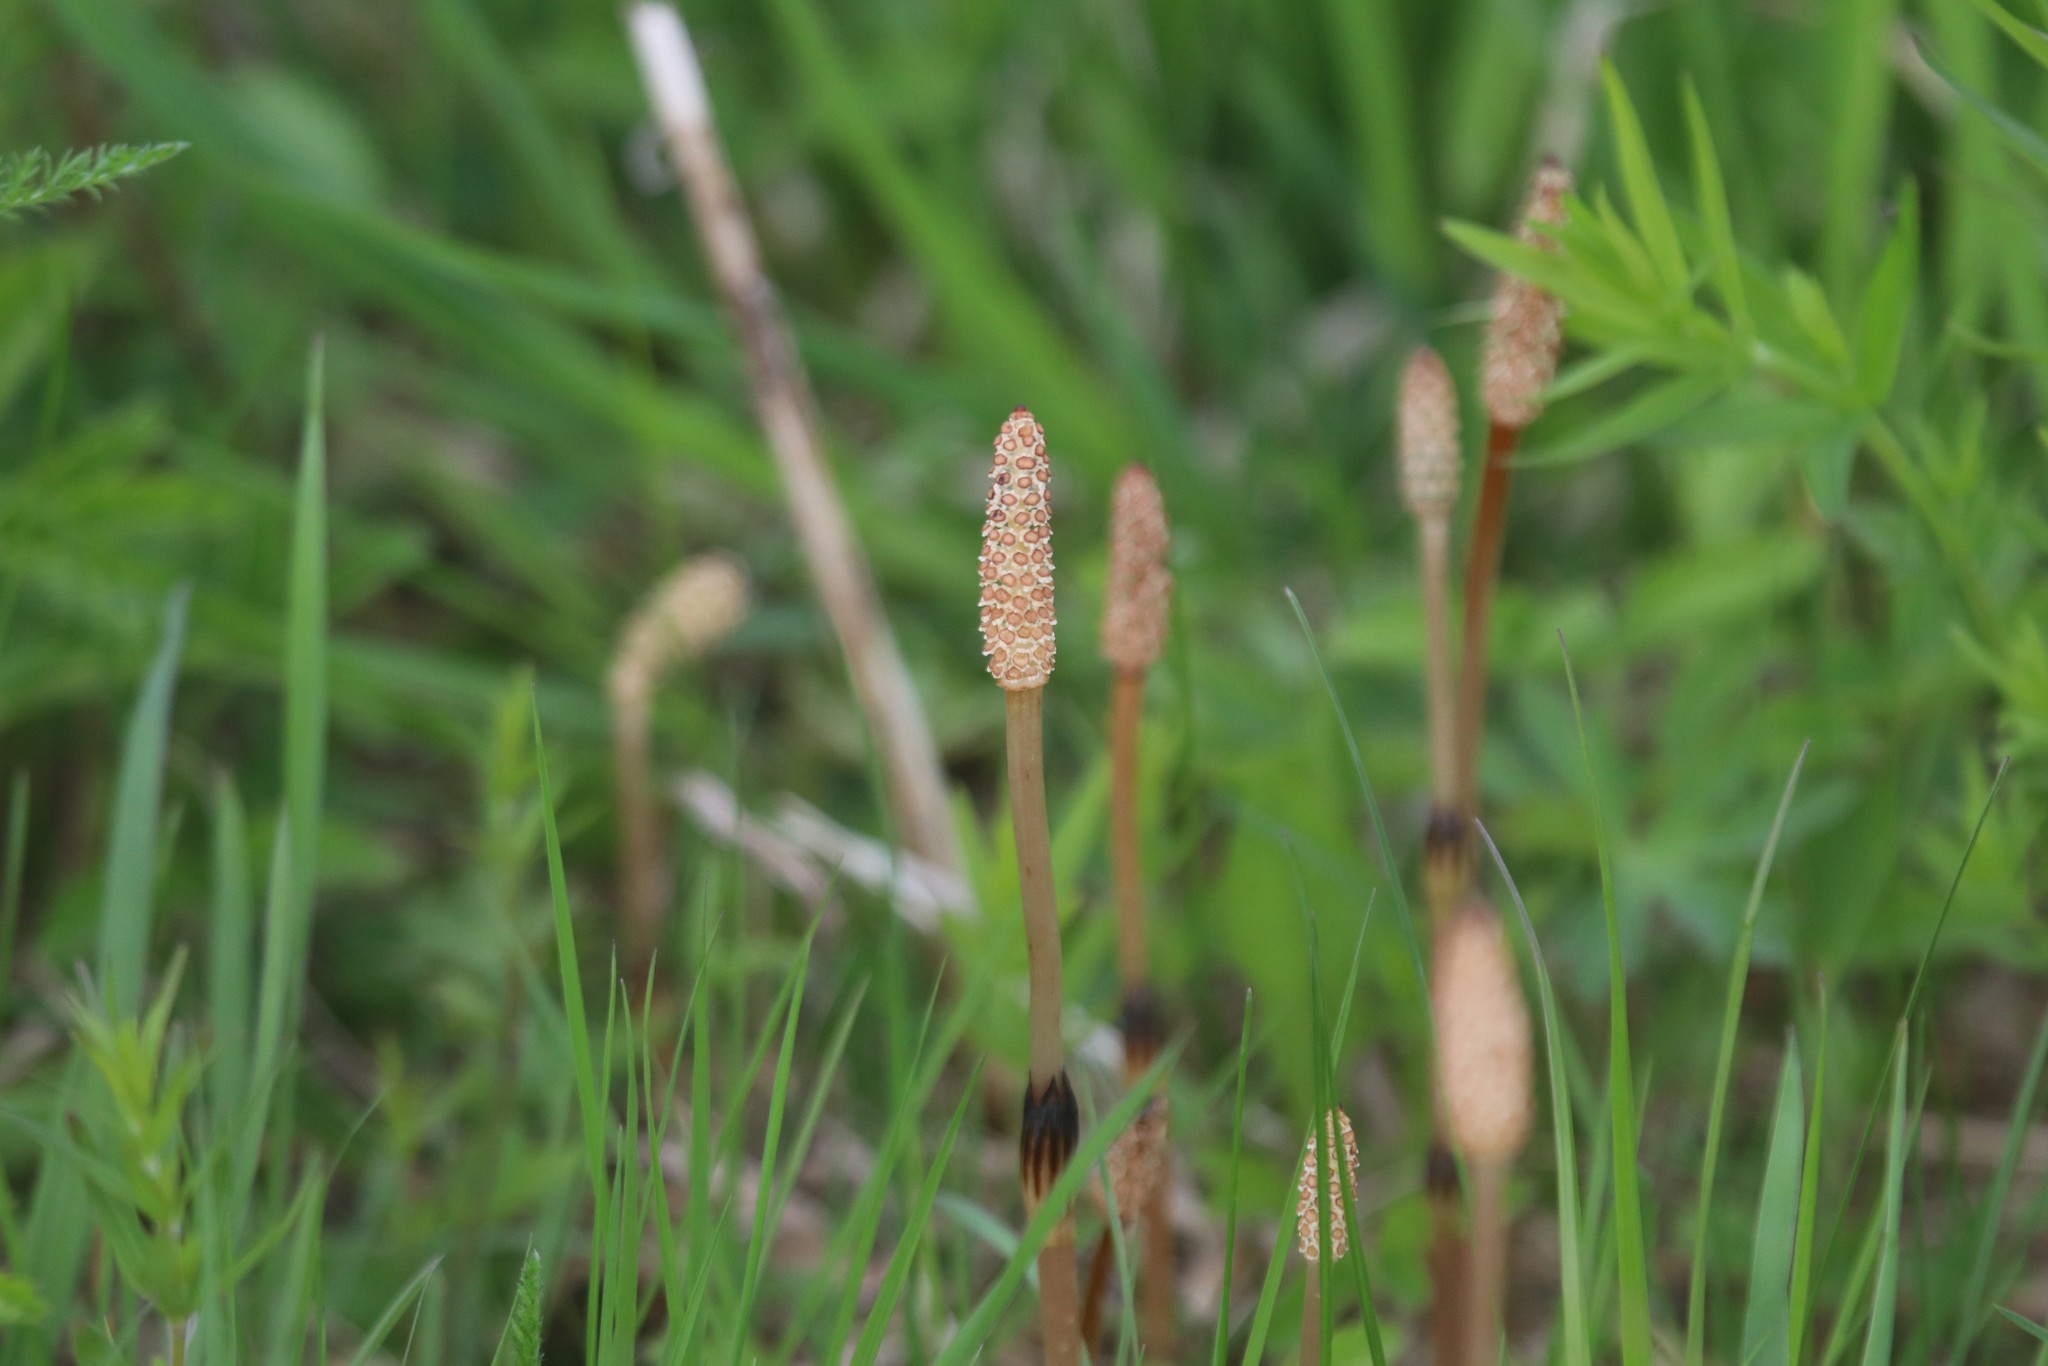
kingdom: Plantae
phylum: Tracheophyta
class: Polypodiopsida
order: Equisetales
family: Equisetaceae
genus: Equisetum
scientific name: Equisetum arvense
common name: Field horsetail
